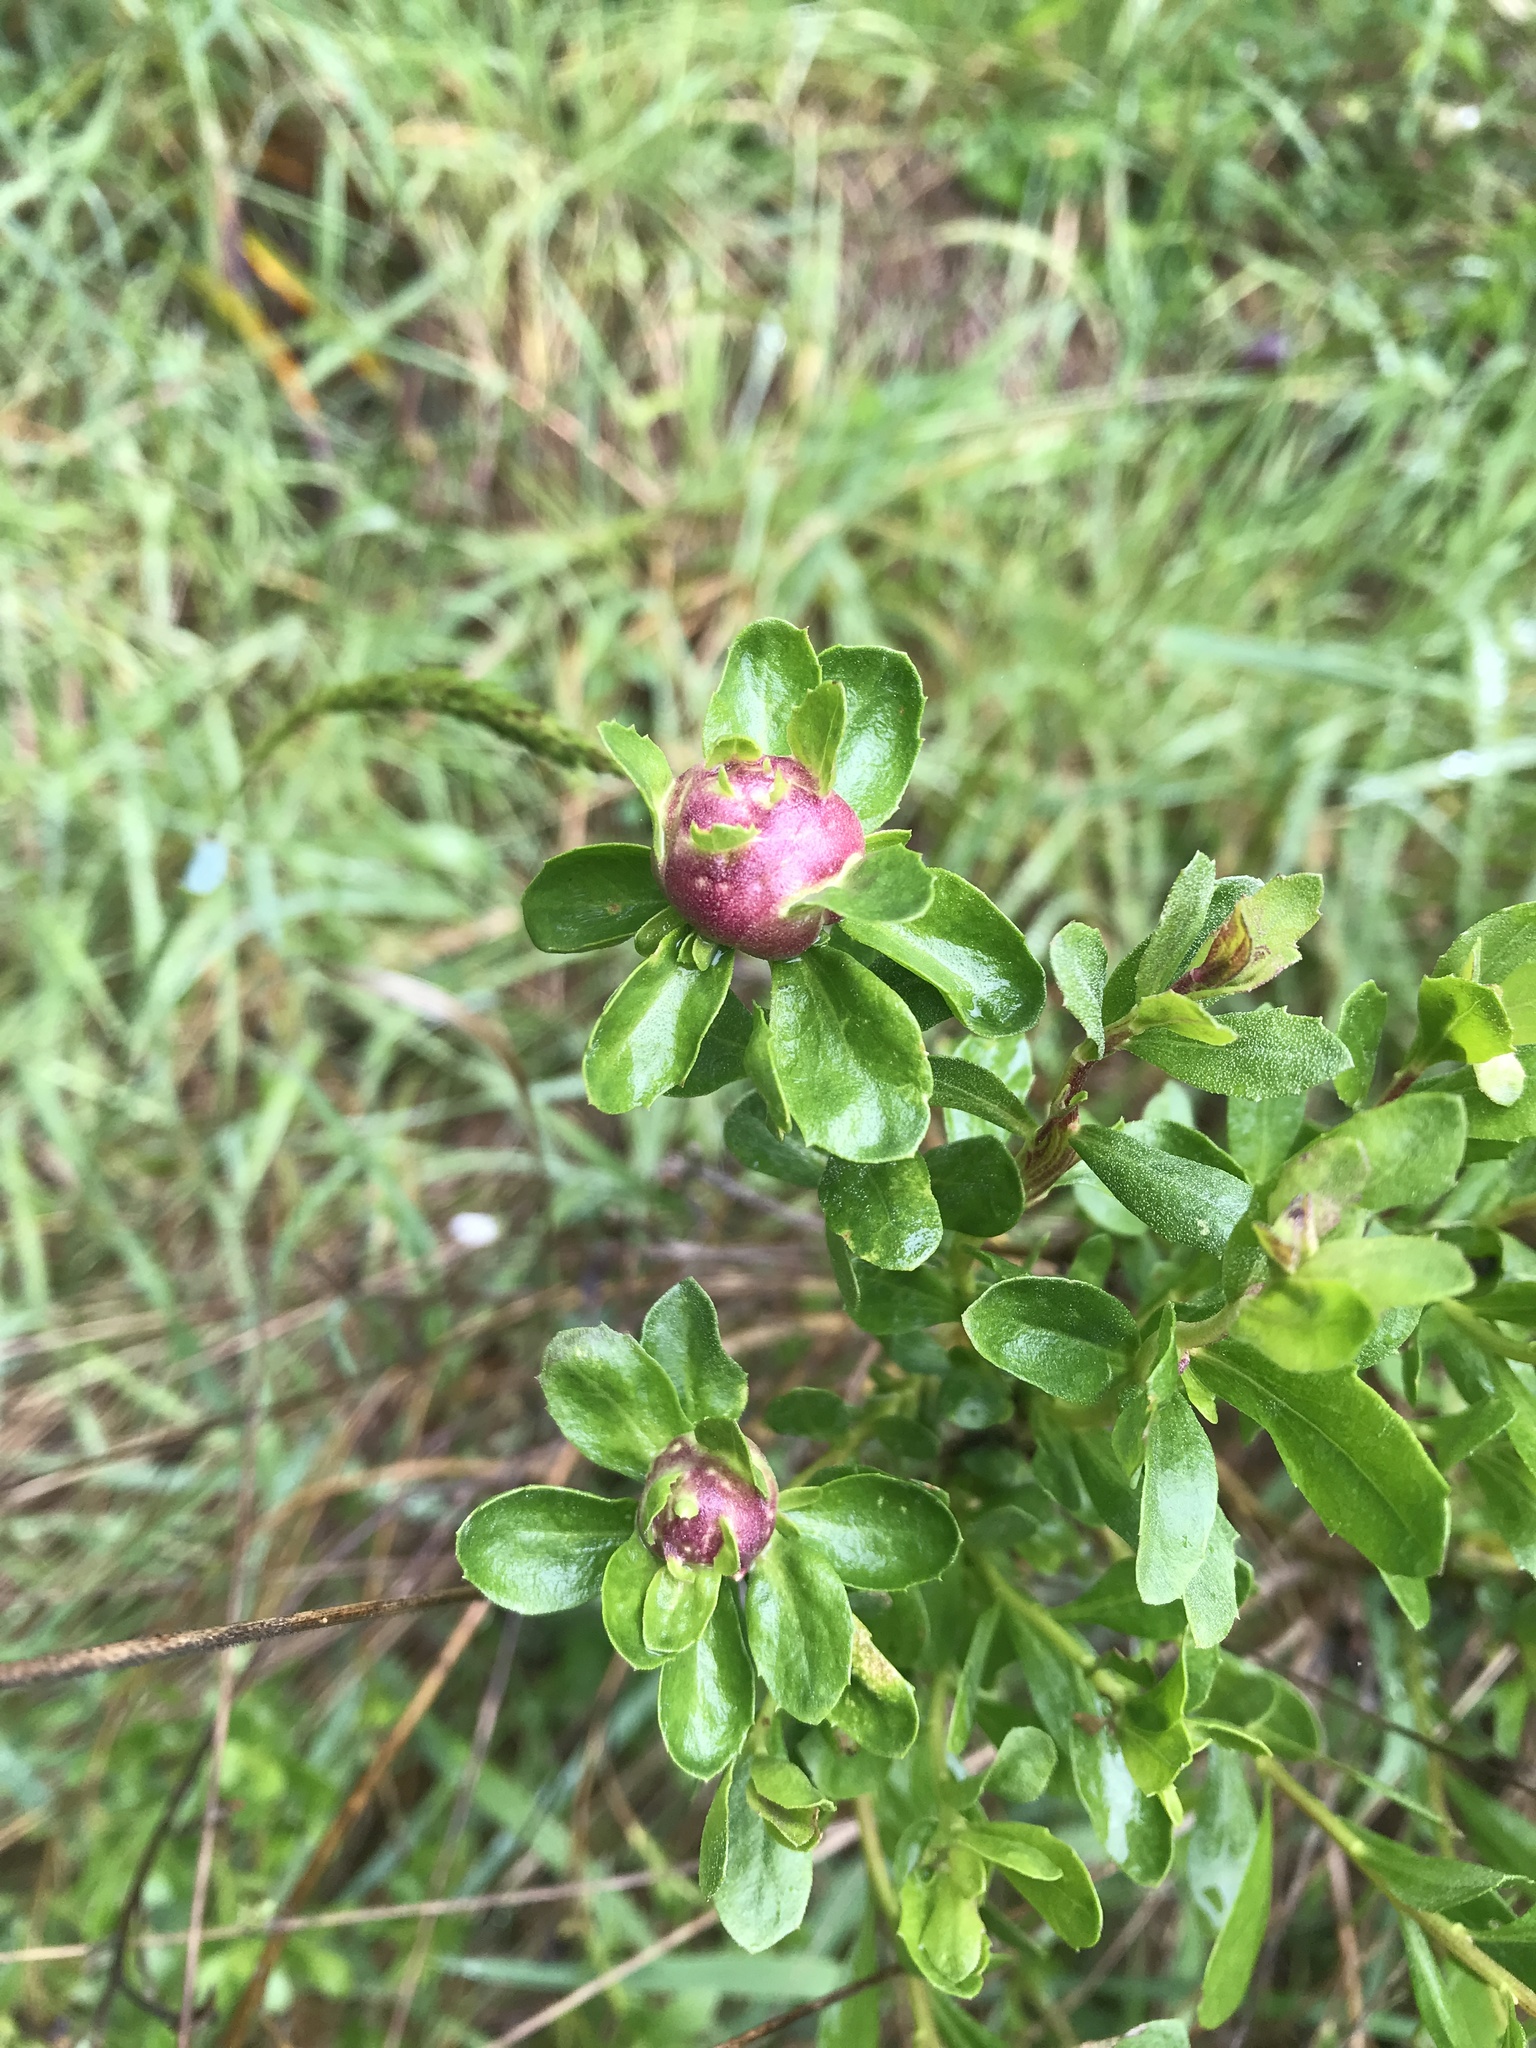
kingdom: Animalia
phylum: Arthropoda
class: Insecta
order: Diptera
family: Cecidomyiidae
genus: Rhopalomyia
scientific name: Rhopalomyia californica
